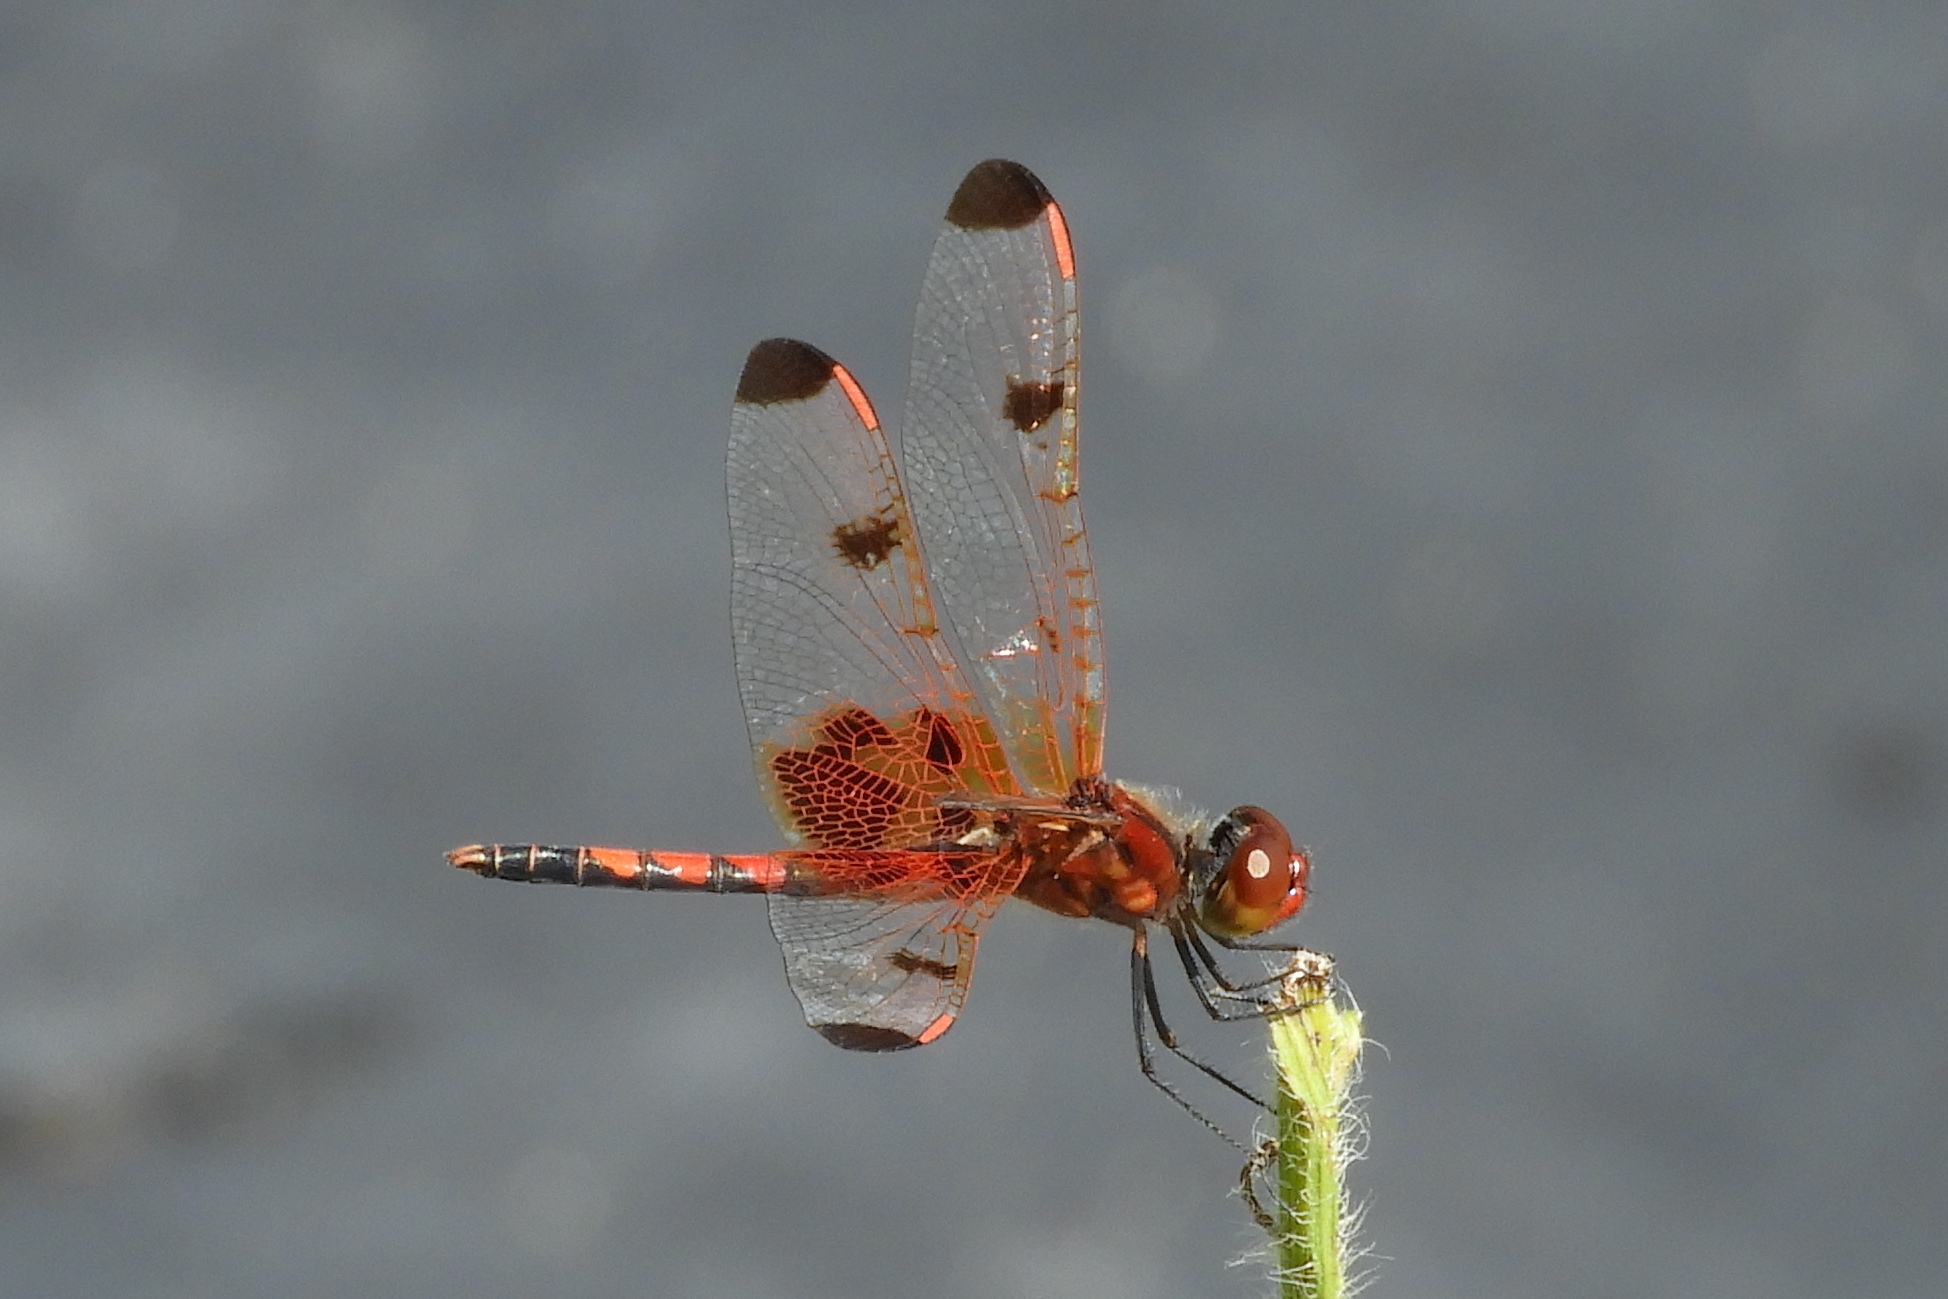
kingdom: Animalia
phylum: Arthropoda
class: Insecta
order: Odonata
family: Libellulidae
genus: Celithemis
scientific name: Celithemis elisa
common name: Calico pennant
